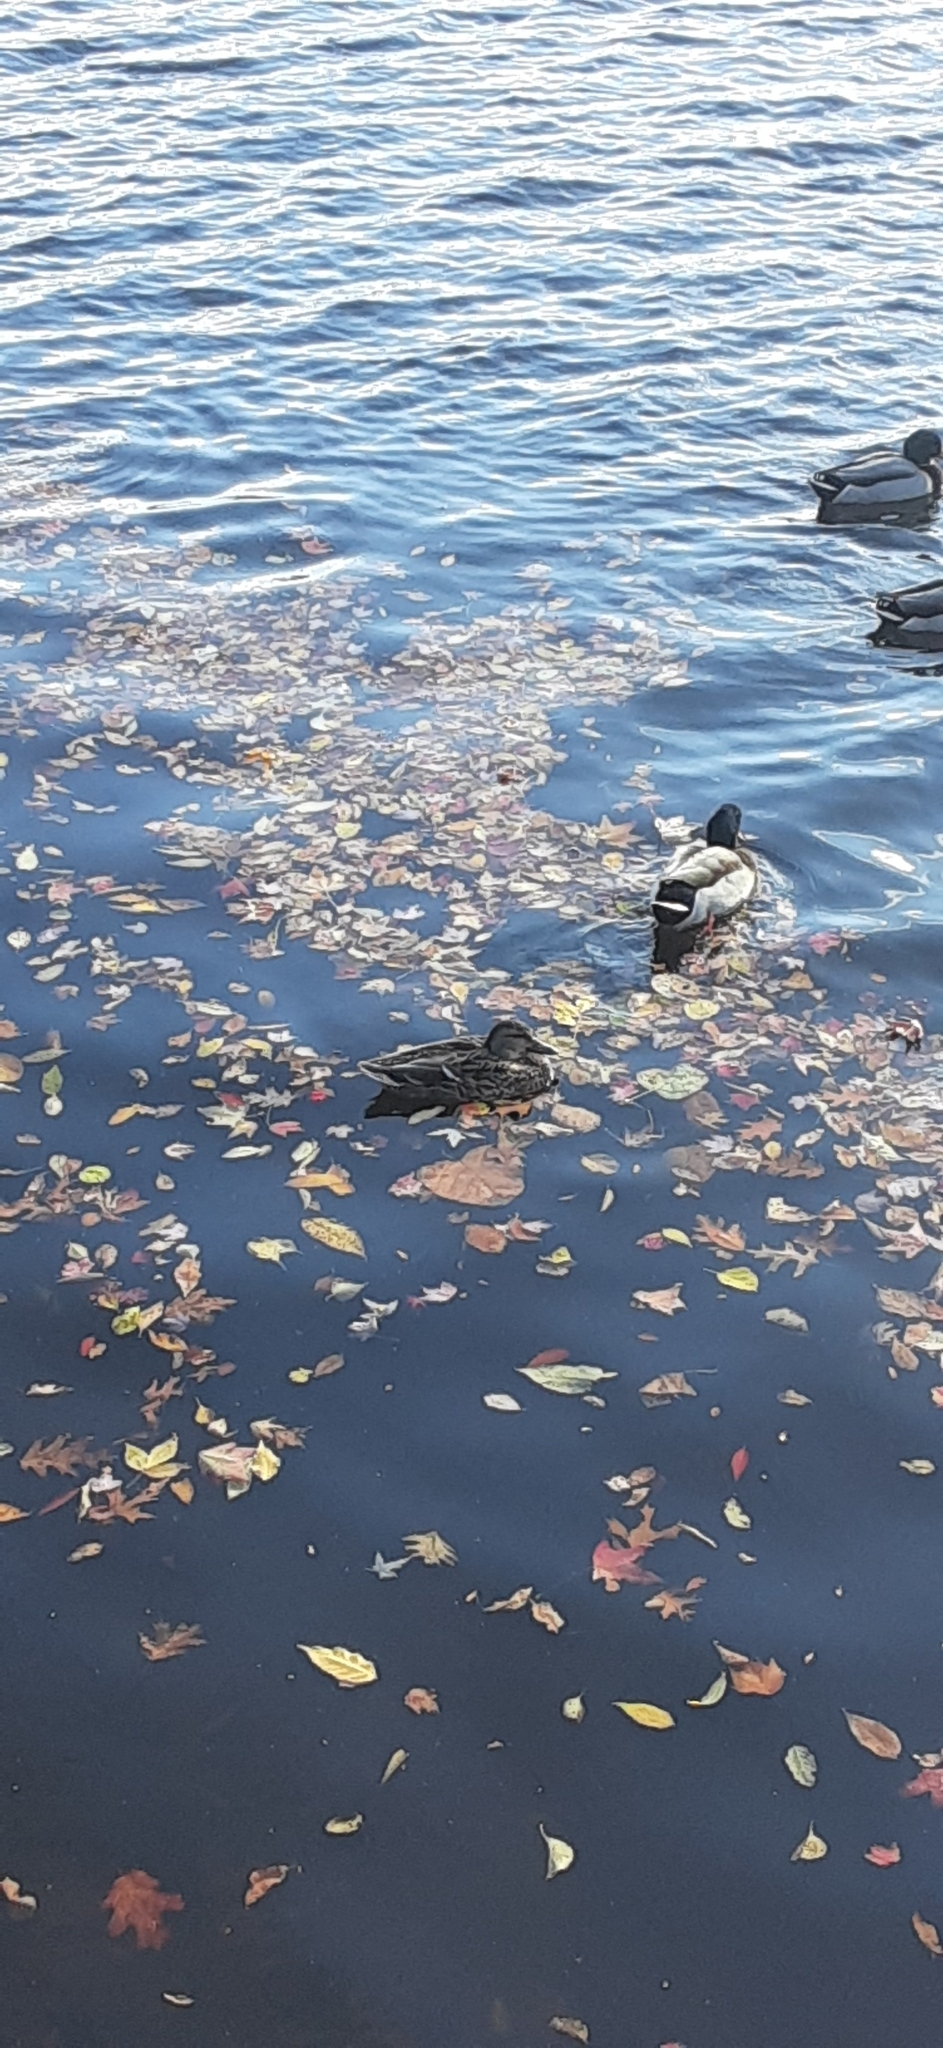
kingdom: Animalia
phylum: Chordata
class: Aves
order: Anseriformes
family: Anatidae
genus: Anas
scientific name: Anas platyrhynchos
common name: Mallard
